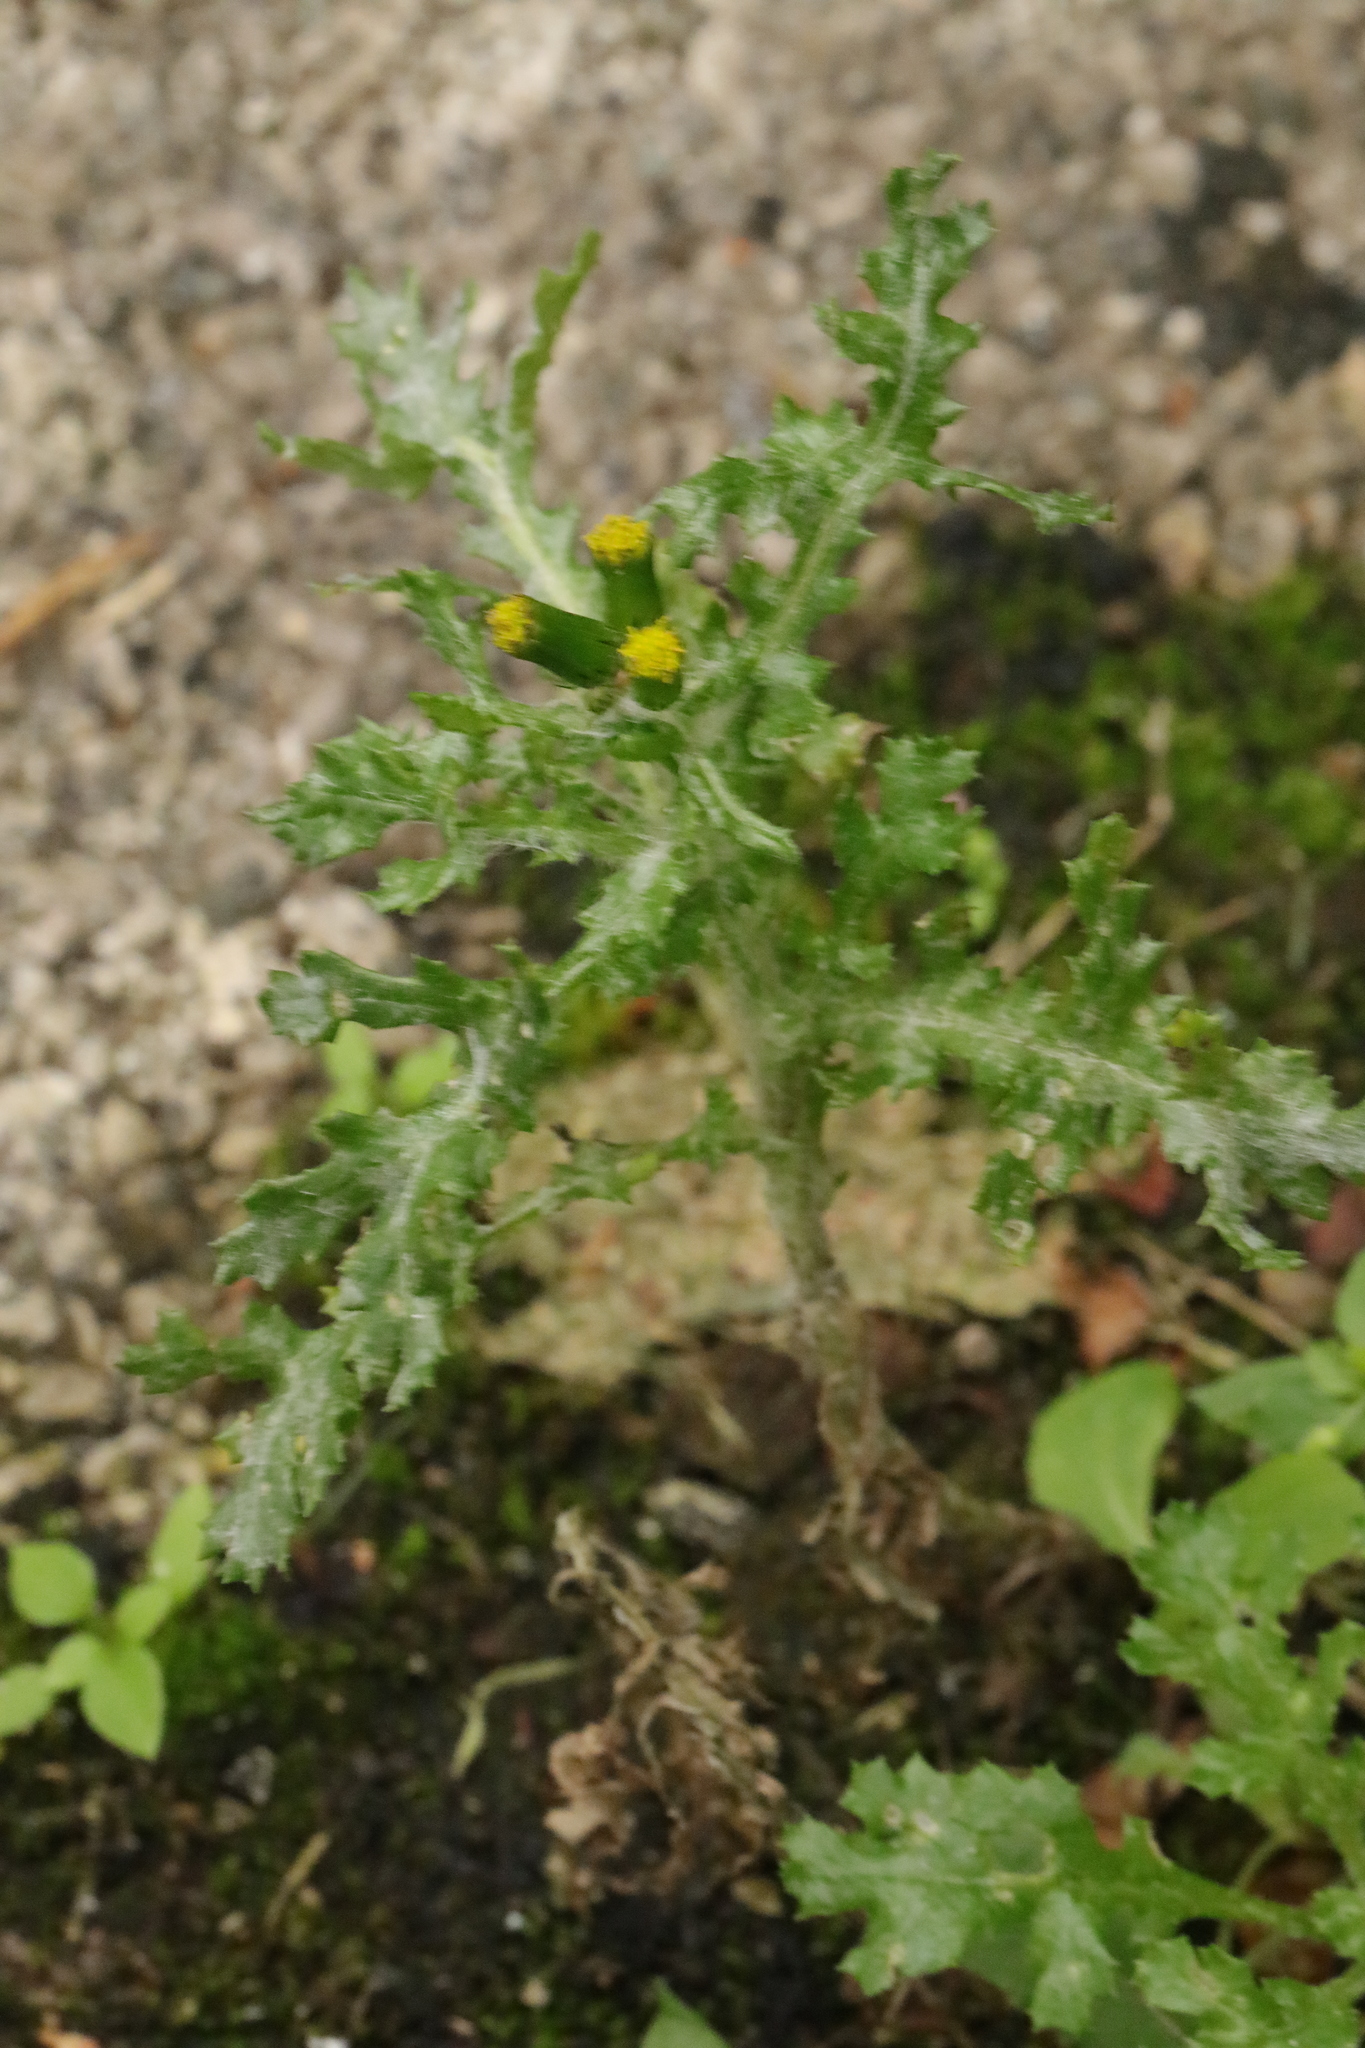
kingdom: Plantae
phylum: Tracheophyta
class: Magnoliopsida
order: Asterales
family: Asteraceae
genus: Senecio
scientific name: Senecio vulgaris
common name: Old-man-in-the-spring
